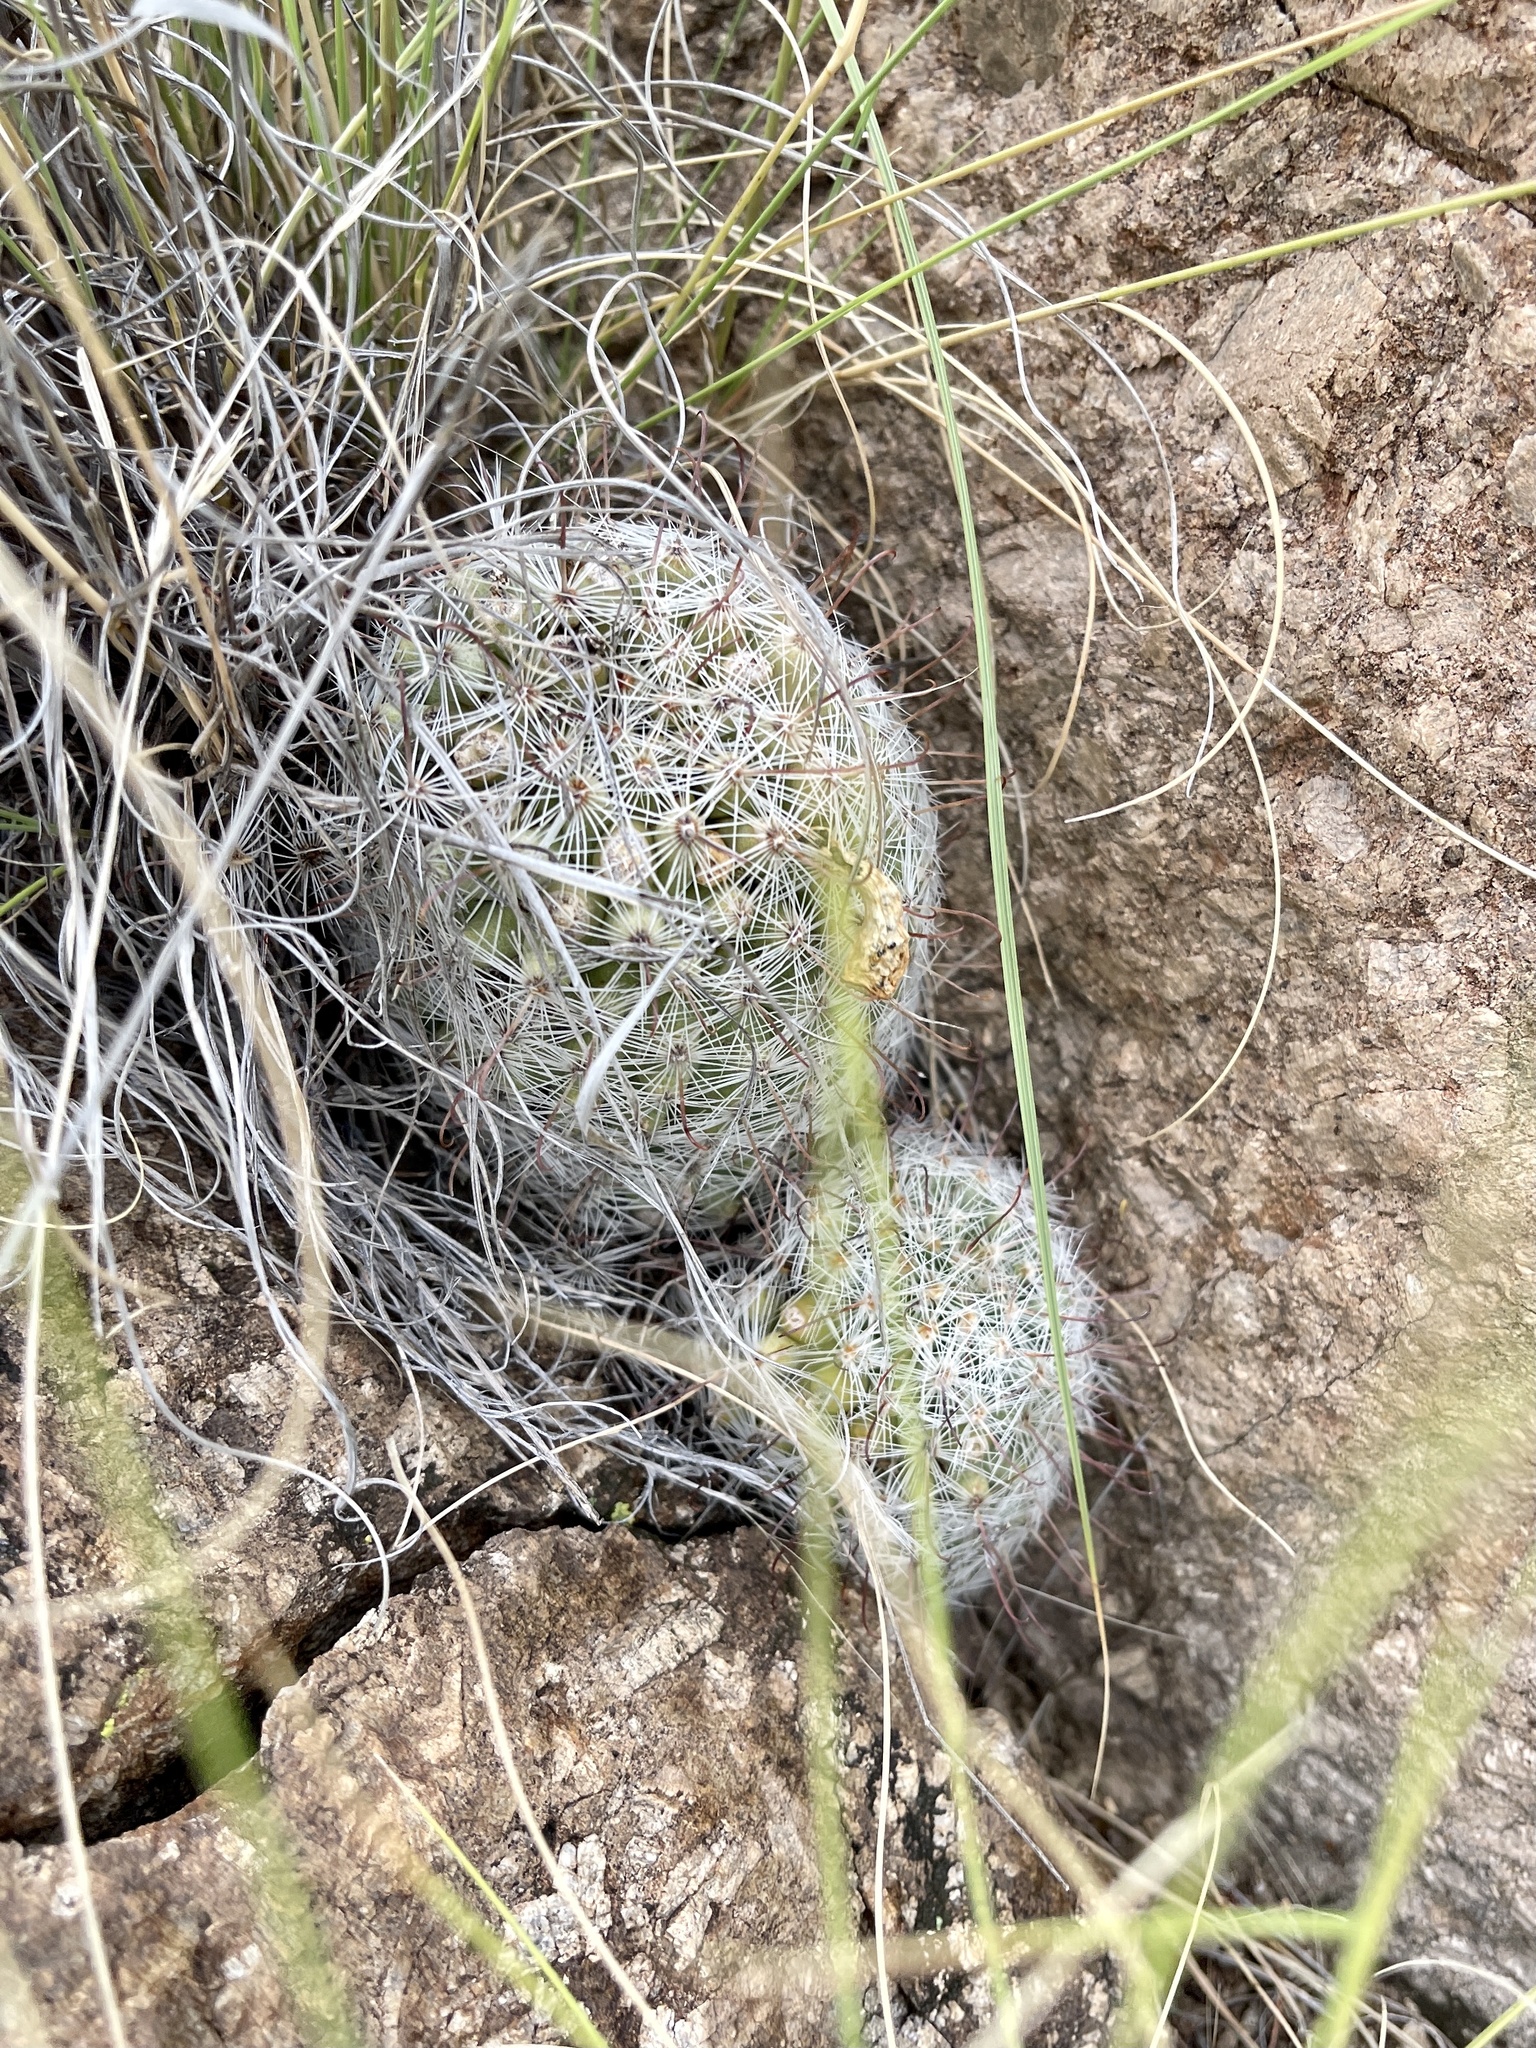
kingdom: Plantae
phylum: Tracheophyta
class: Magnoliopsida
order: Caryophyllales
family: Cactaceae
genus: Cochemiea
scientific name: Cochemiea grahamii
